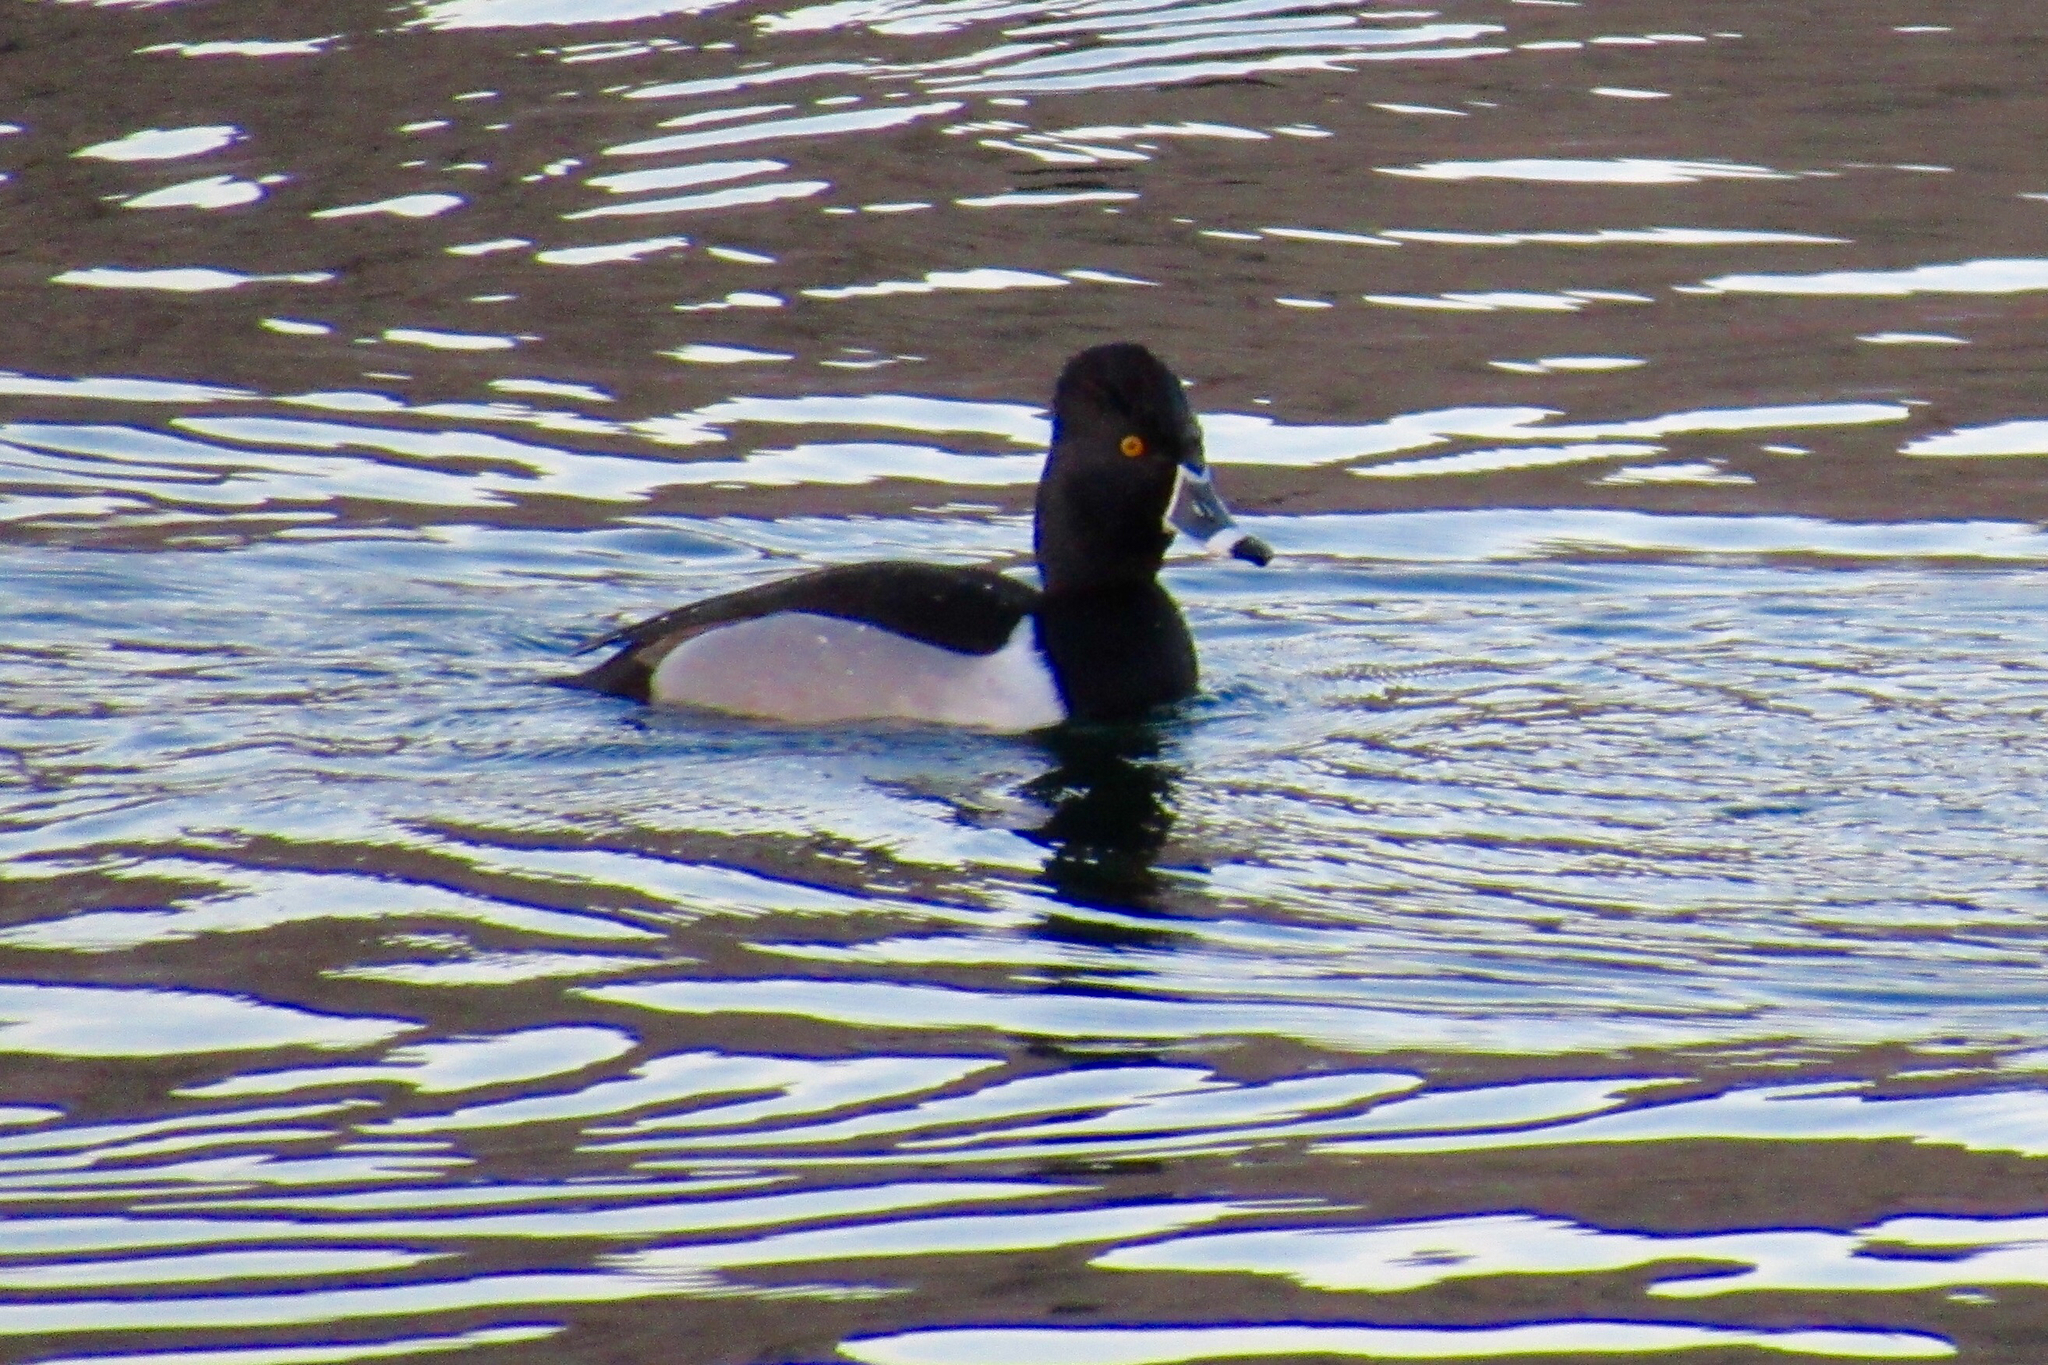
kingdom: Animalia
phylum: Chordata
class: Aves
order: Anseriformes
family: Anatidae
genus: Aythya
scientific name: Aythya collaris
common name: Ring-necked duck
